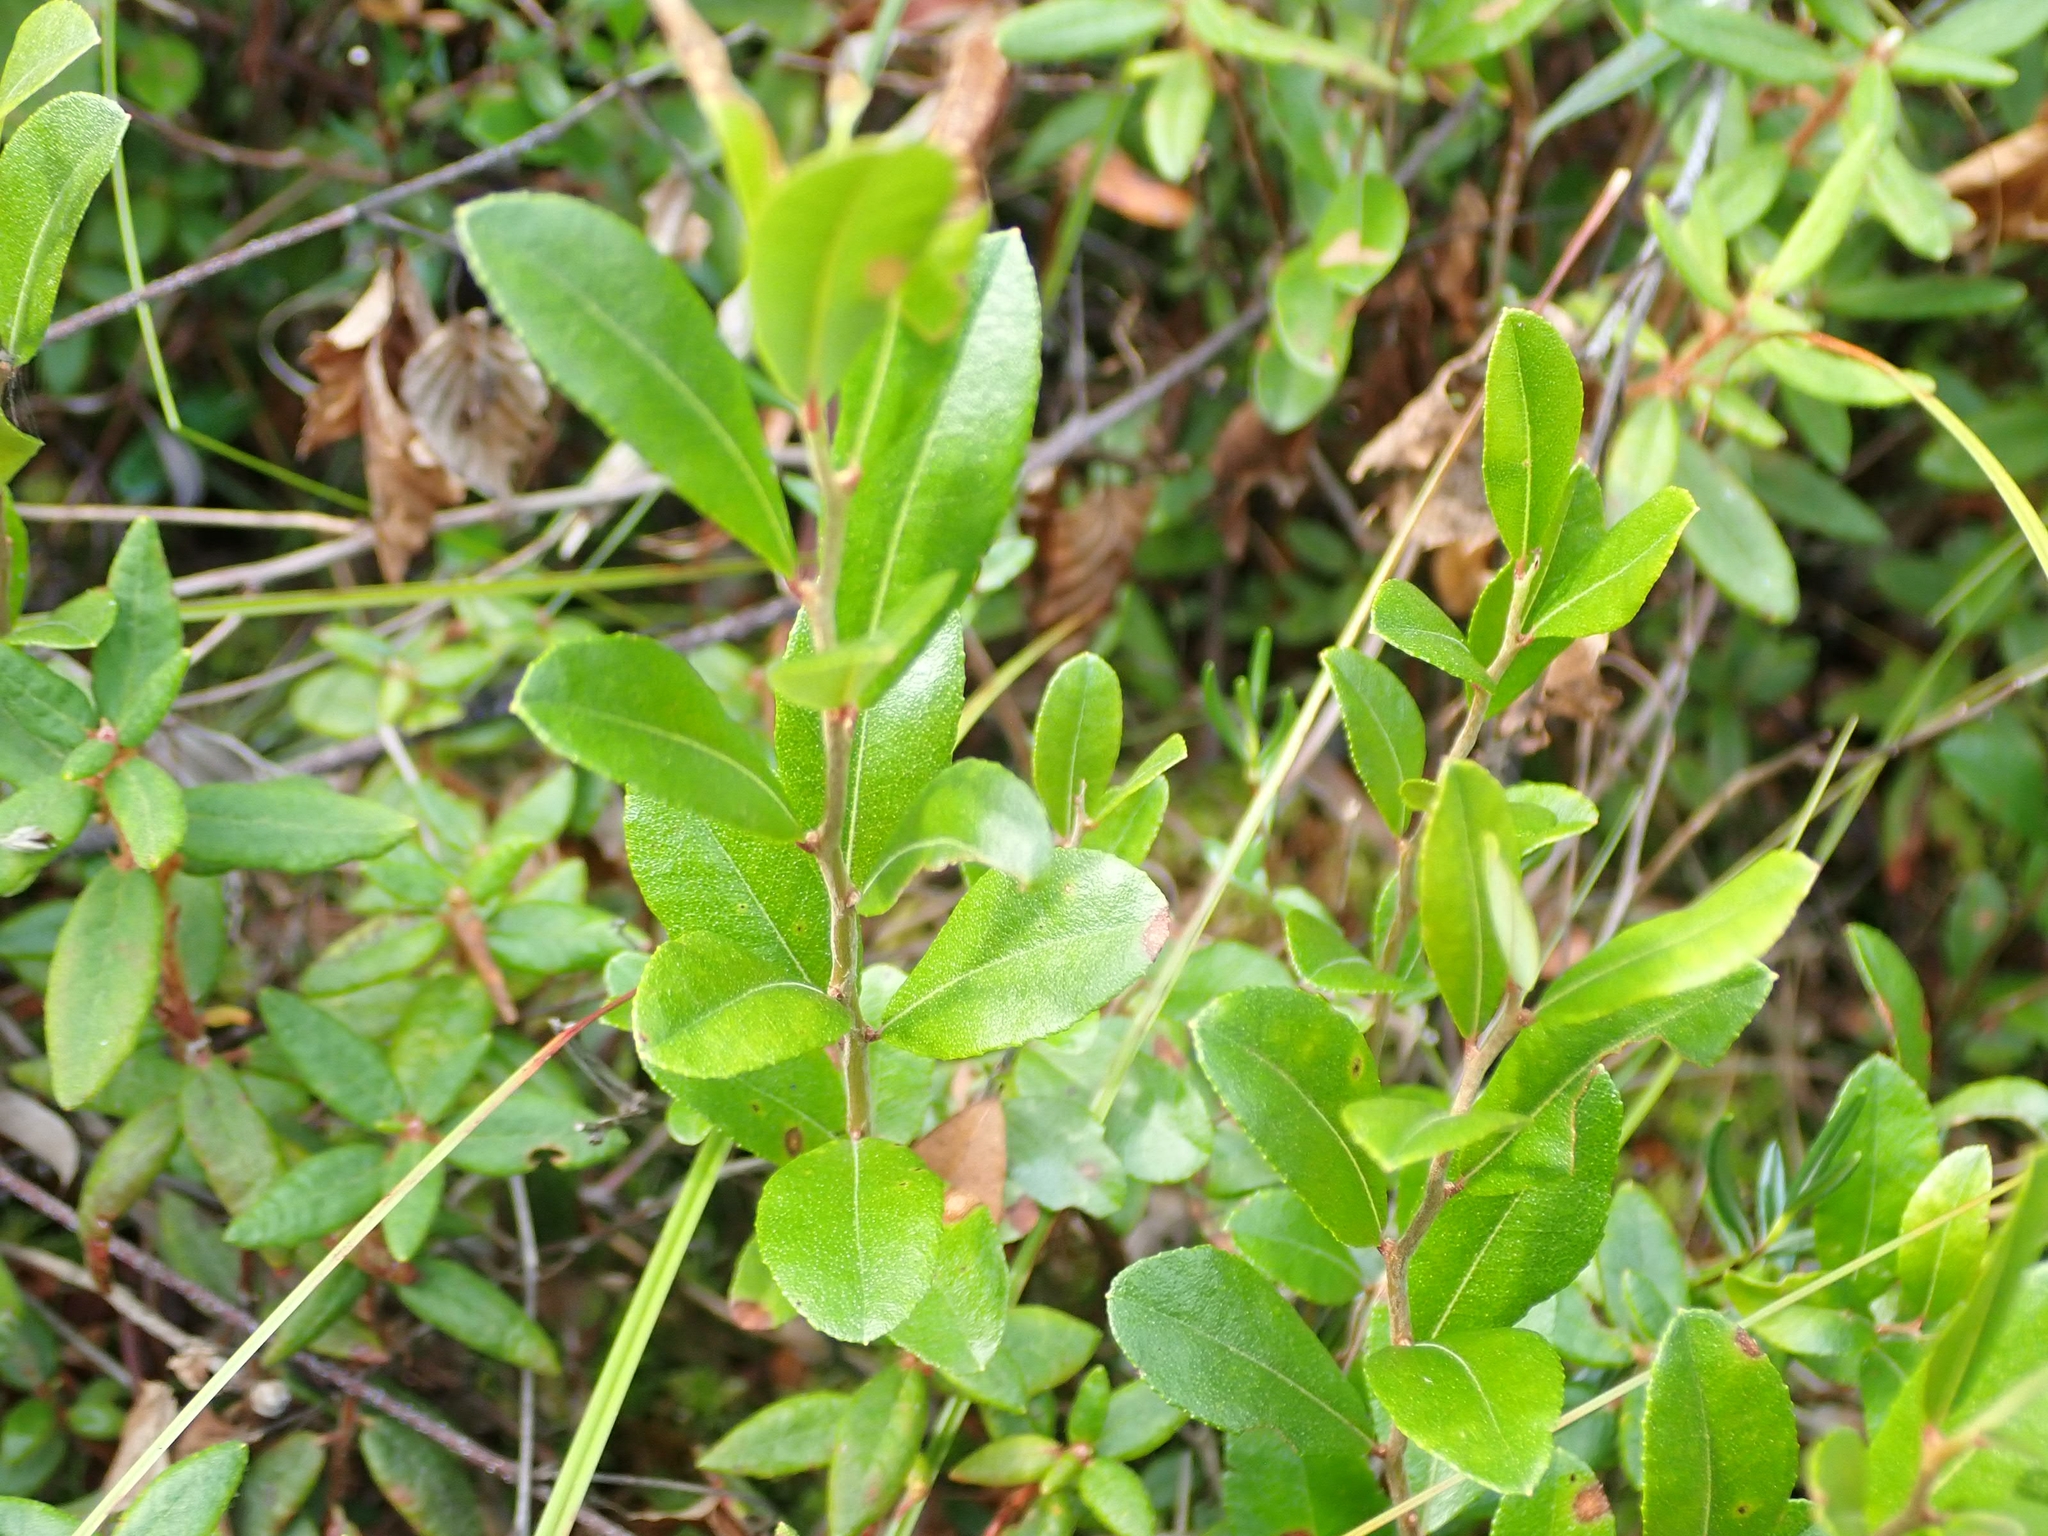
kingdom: Plantae
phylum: Tracheophyta
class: Magnoliopsida
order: Ericales
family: Ericaceae
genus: Chamaedaphne
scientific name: Chamaedaphne calyculata
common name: Leatherleaf
